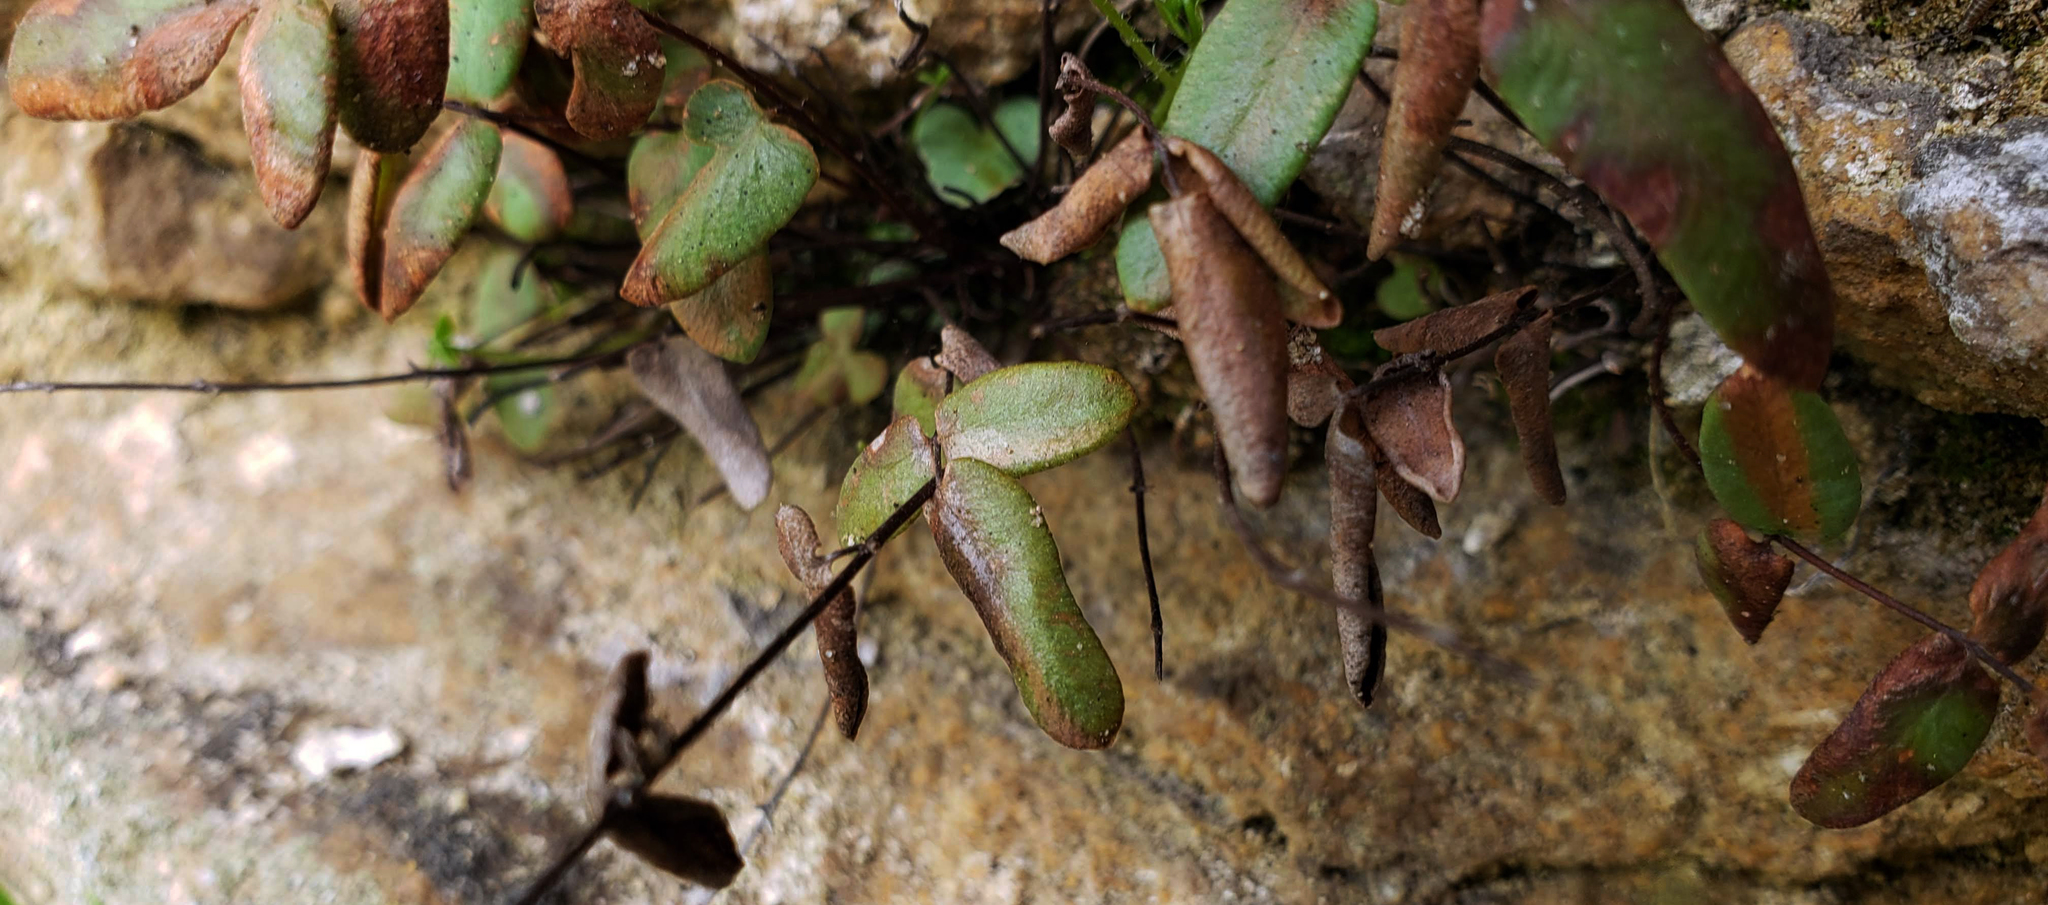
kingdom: Plantae
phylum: Tracheophyta
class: Polypodiopsida
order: Polypodiales
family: Pteridaceae
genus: Pellaea
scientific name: Pellaea glabella
